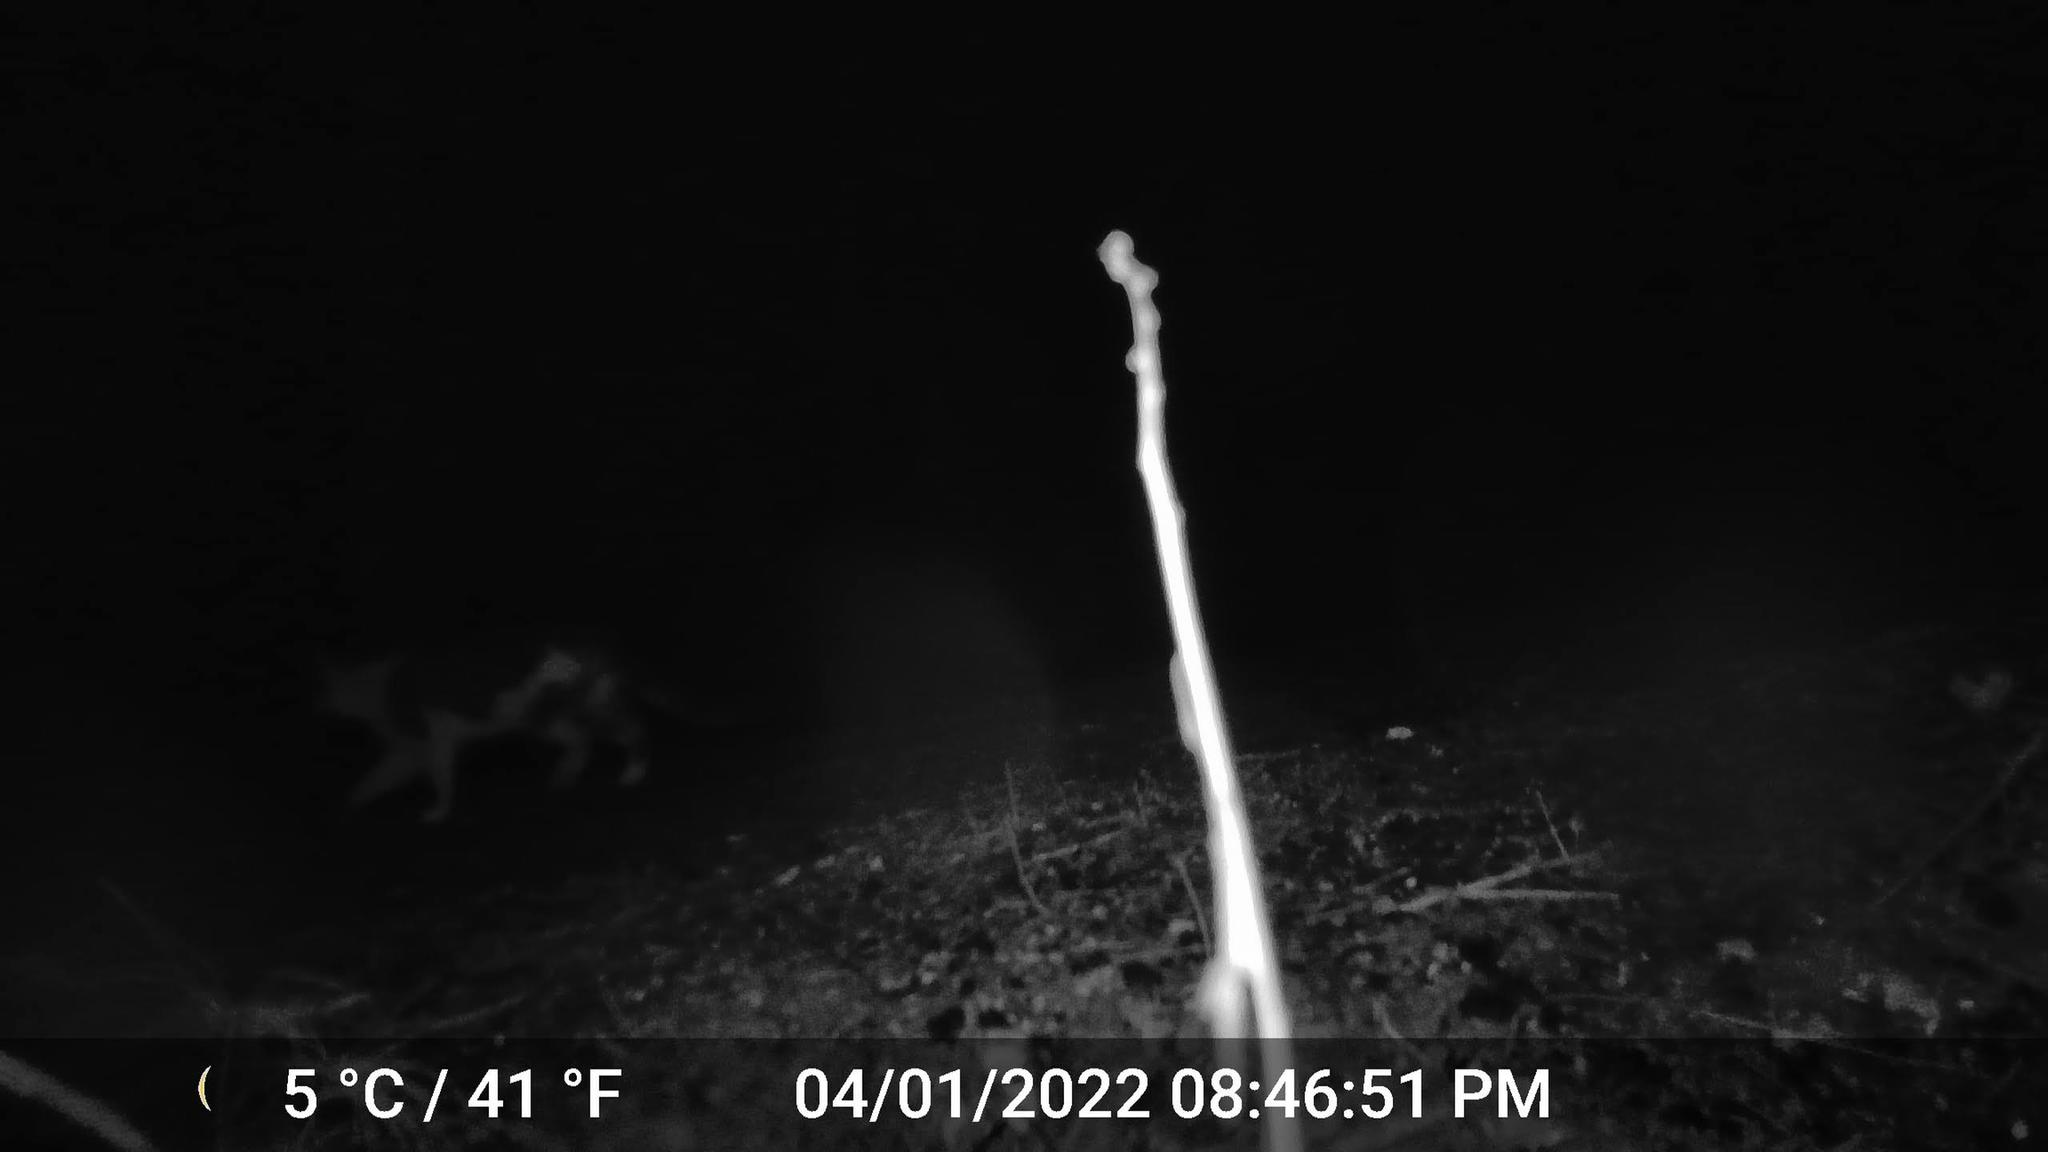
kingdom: Animalia
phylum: Chordata
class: Mammalia
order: Carnivora
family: Felidae
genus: Felis
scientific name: Felis catus
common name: Domestic cat
